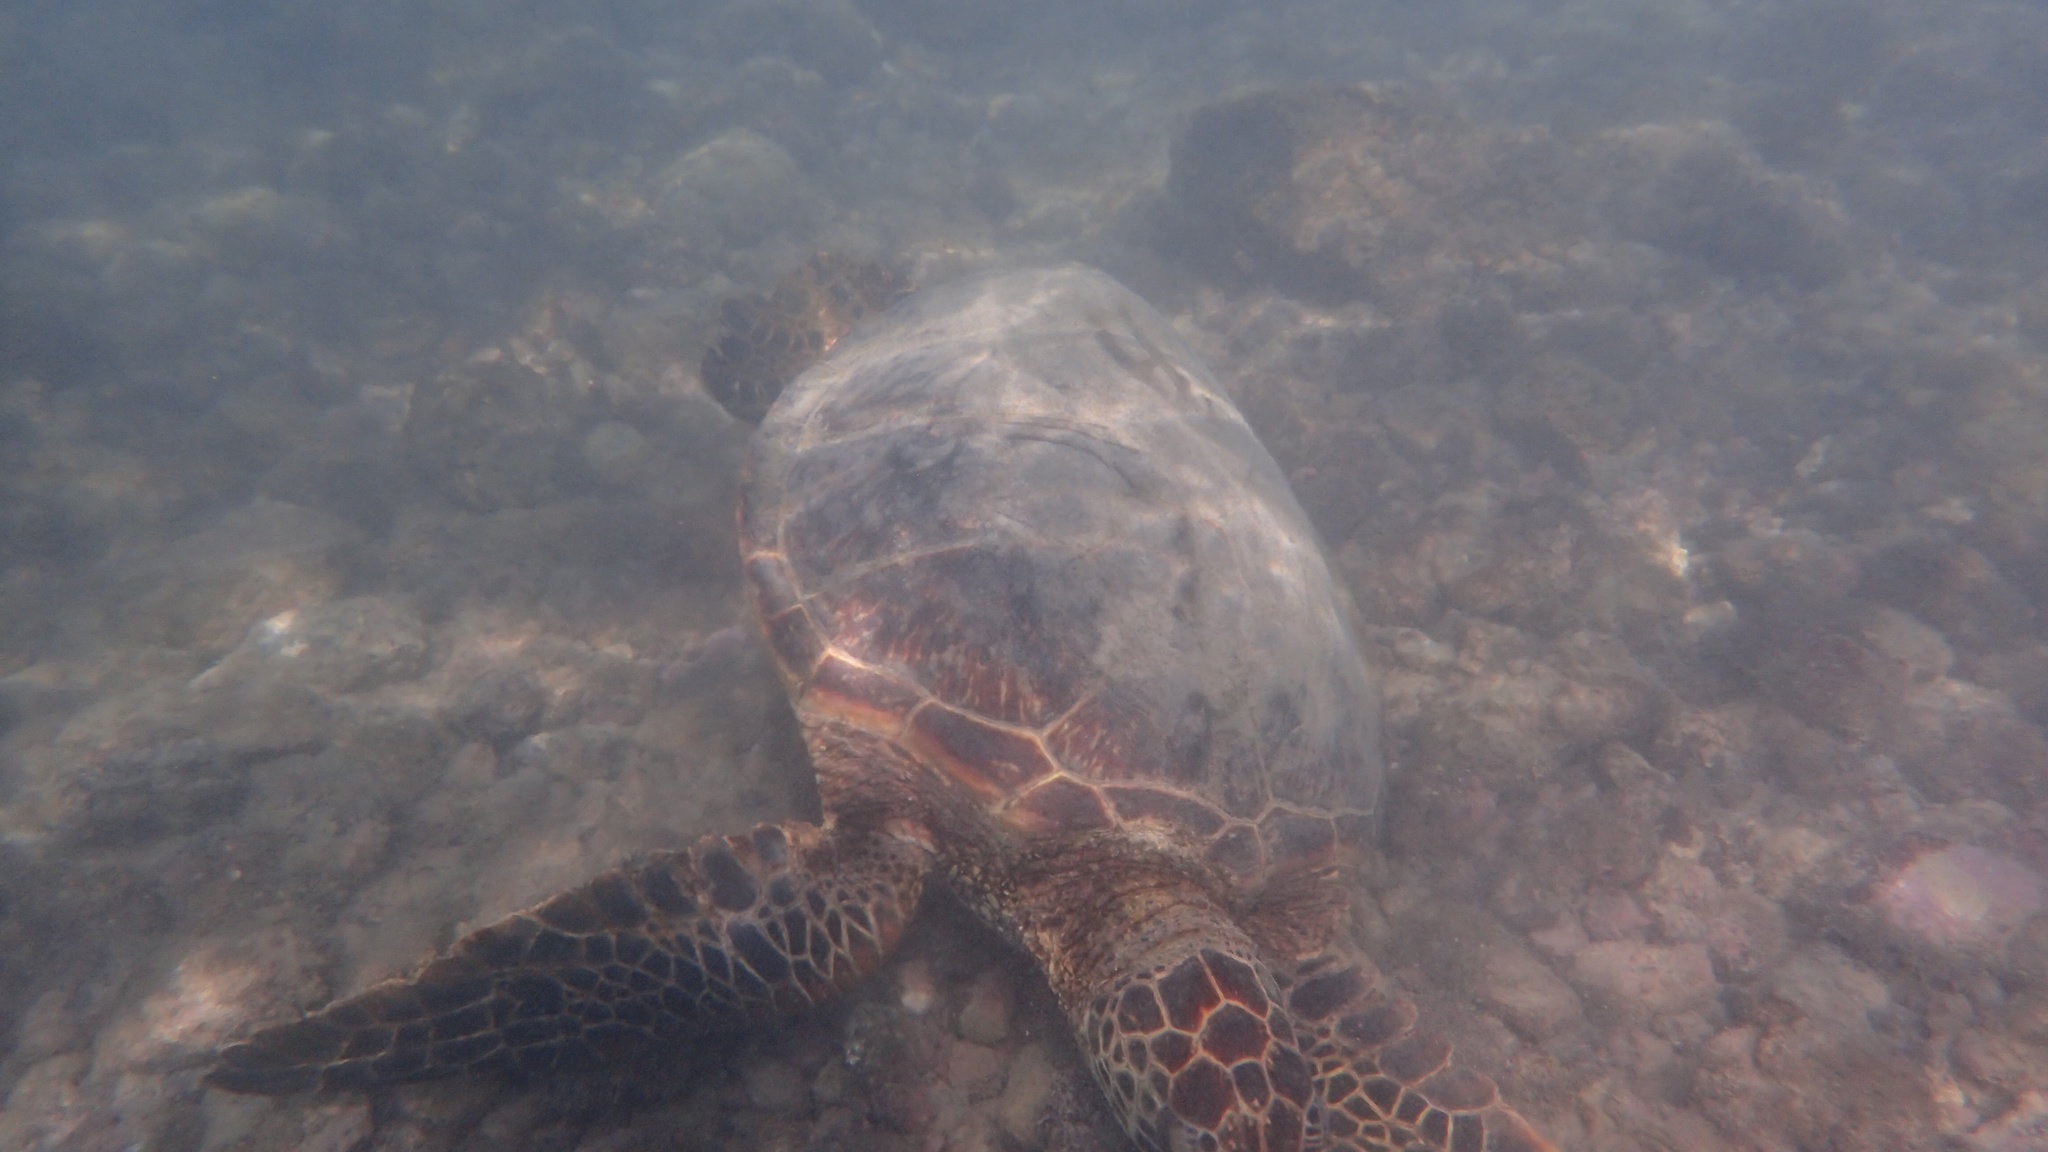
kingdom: Animalia
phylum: Chordata
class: Testudines
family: Cheloniidae
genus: Chelonia
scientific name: Chelonia mydas
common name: Green turtle
